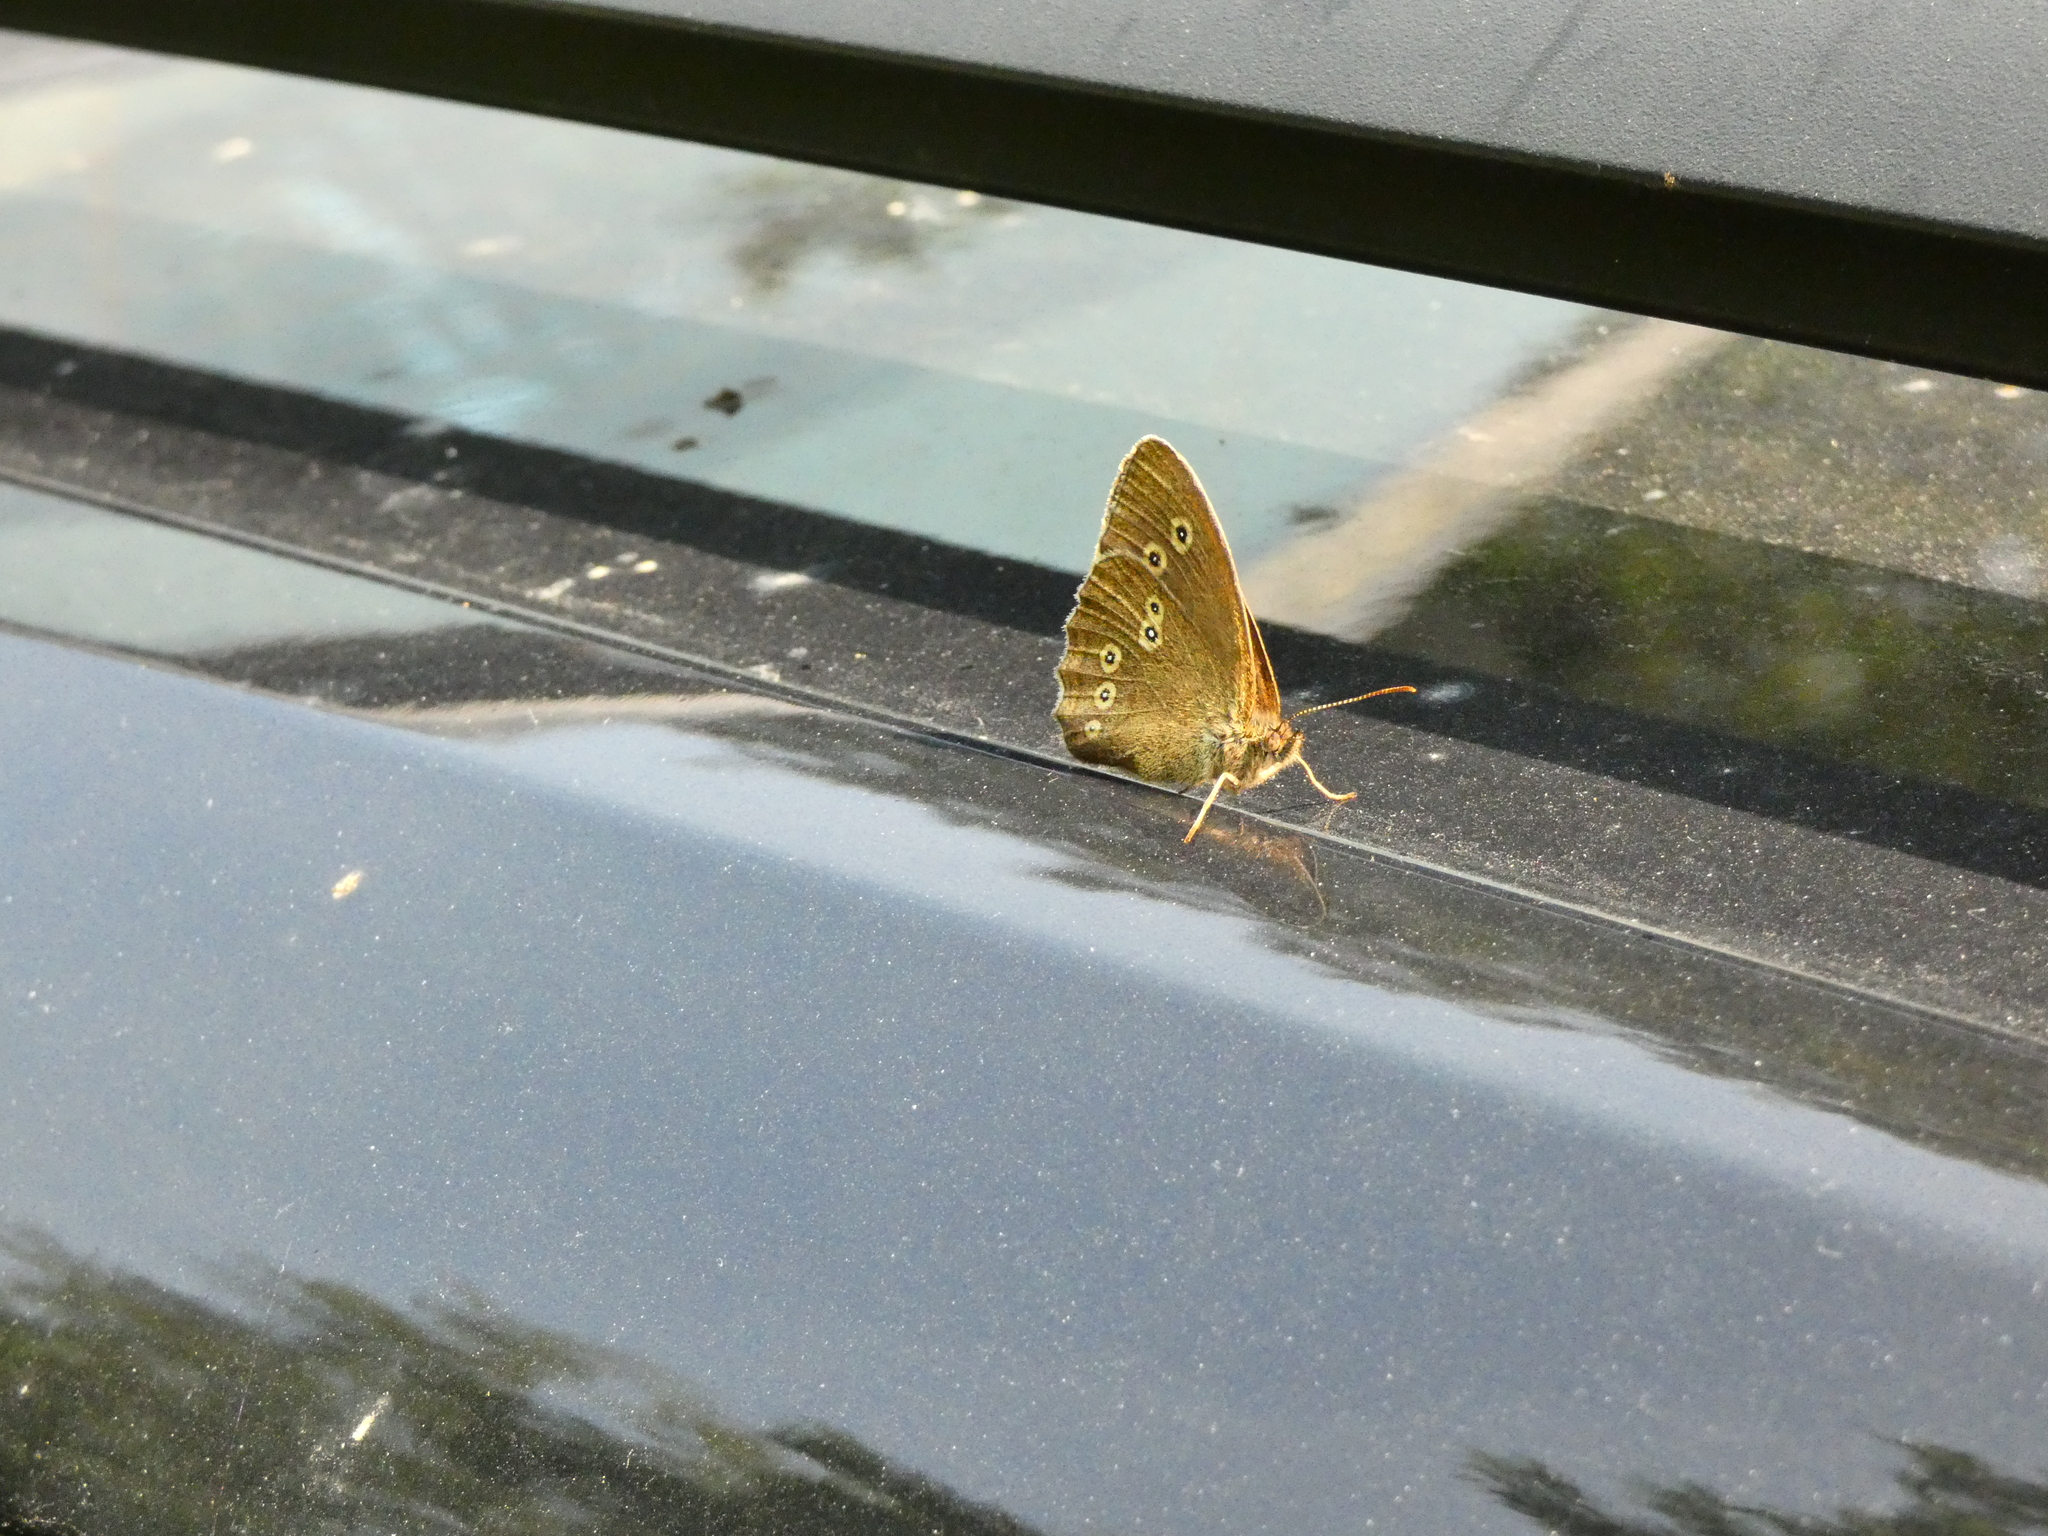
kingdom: Animalia
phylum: Arthropoda
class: Insecta
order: Lepidoptera
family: Nymphalidae
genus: Aphantopus
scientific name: Aphantopus hyperantus
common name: Ringlet
